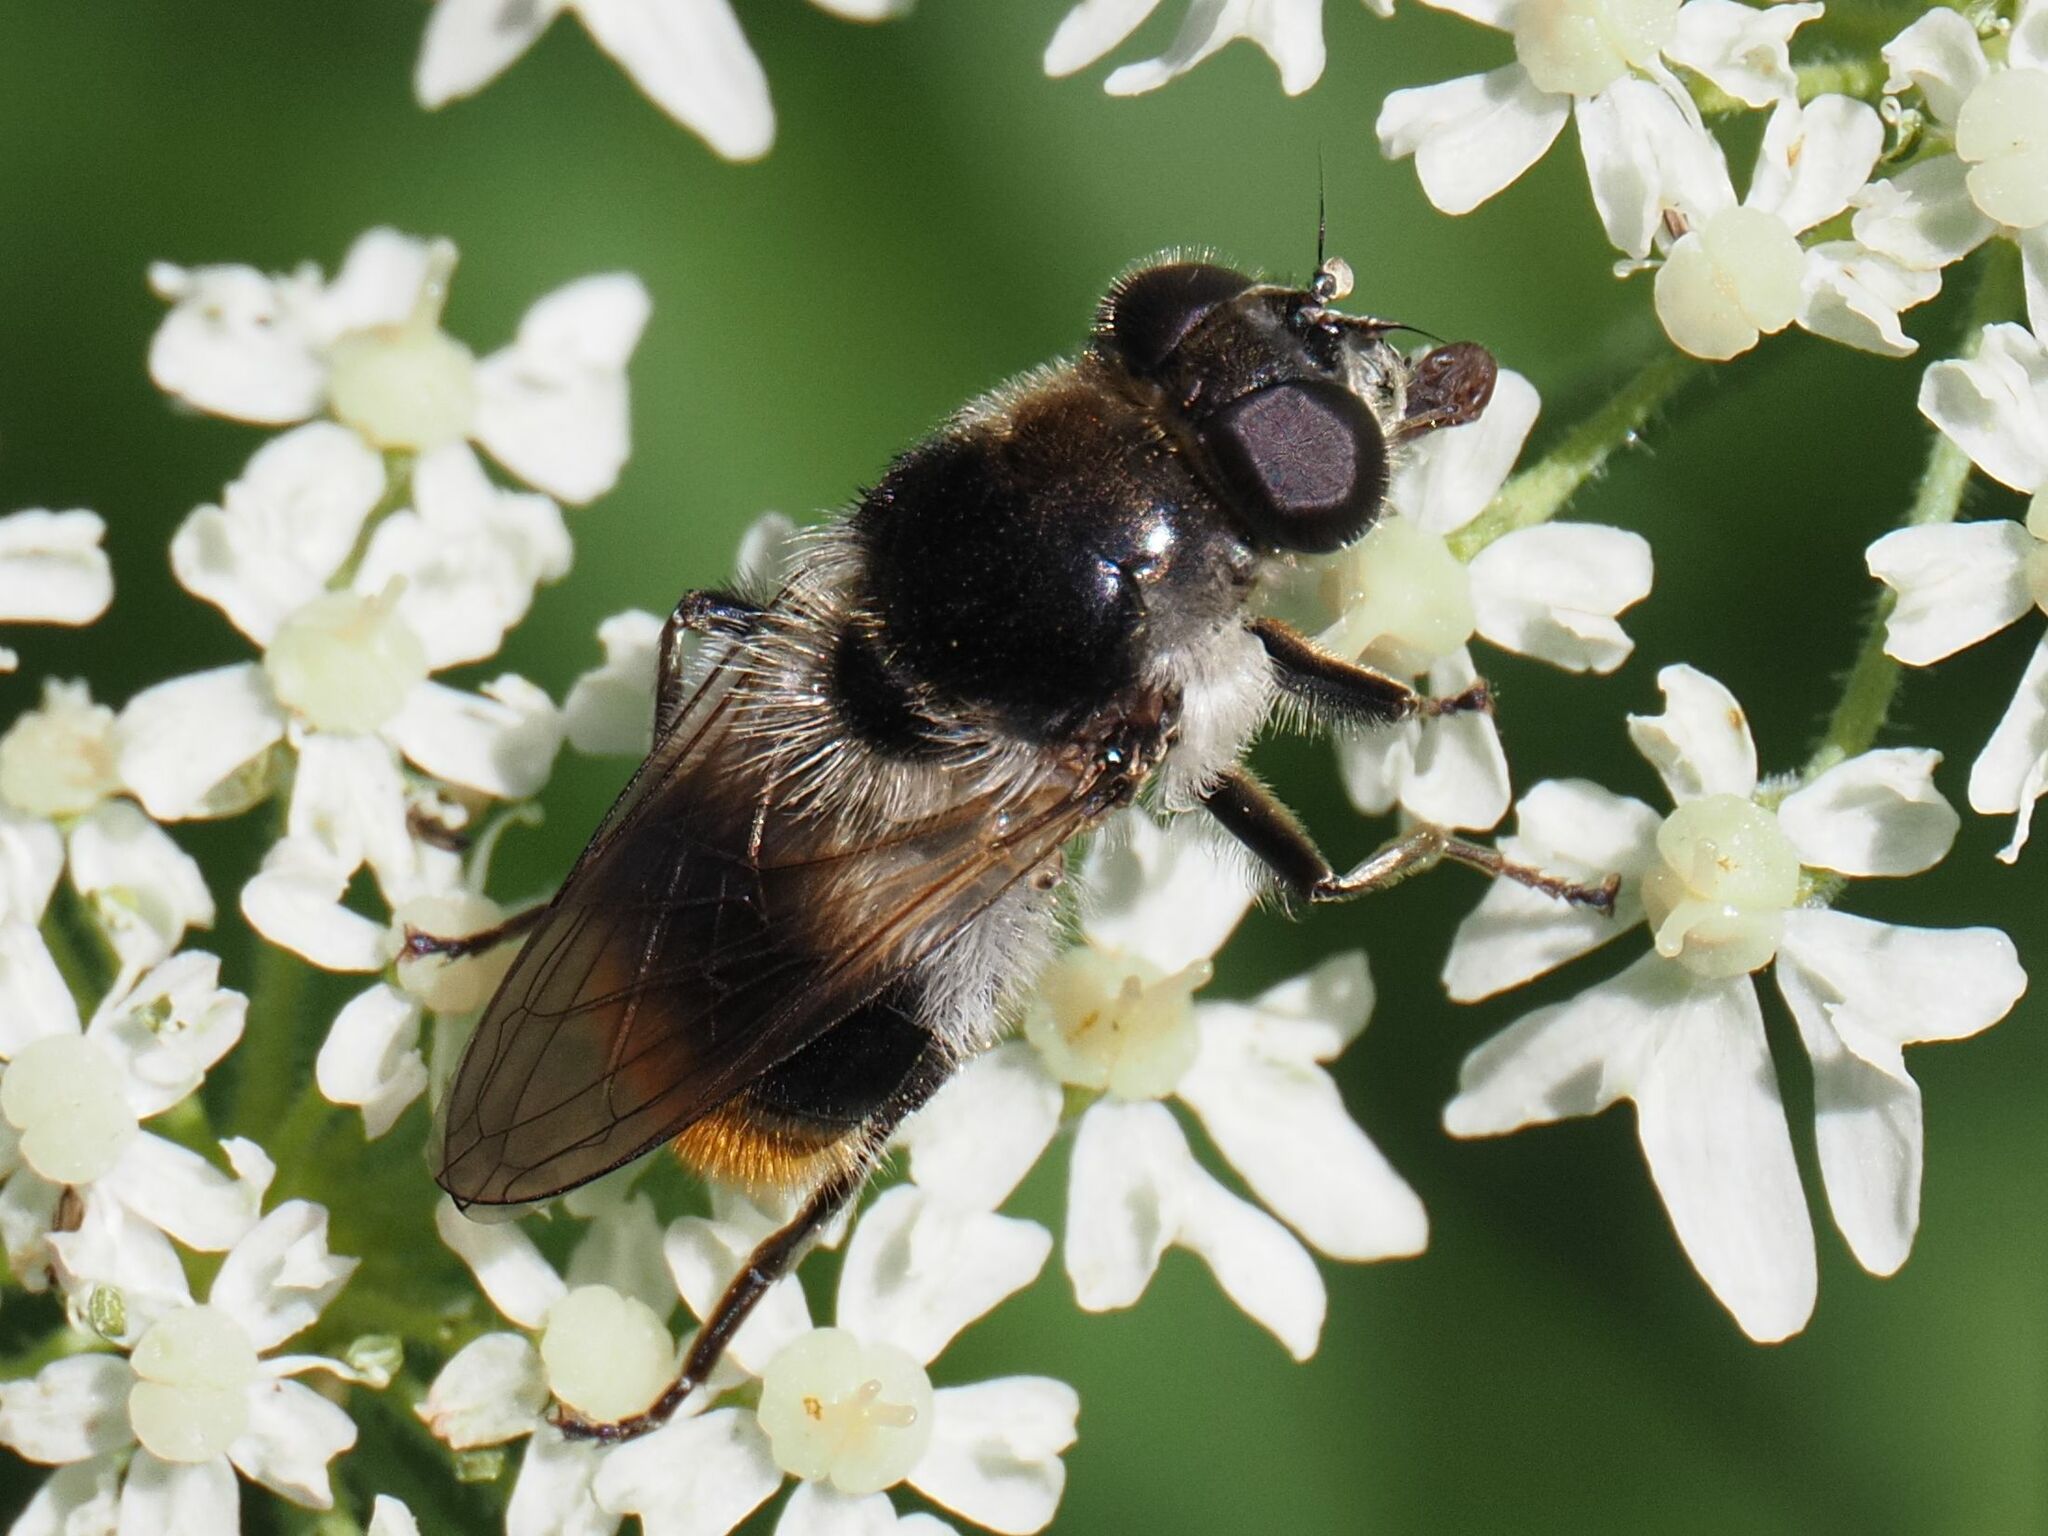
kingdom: Animalia
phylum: Arthropoda
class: Insecta
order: Diptera
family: Syrphidae
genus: Cheilosia
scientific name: Cheilosia illustrata
